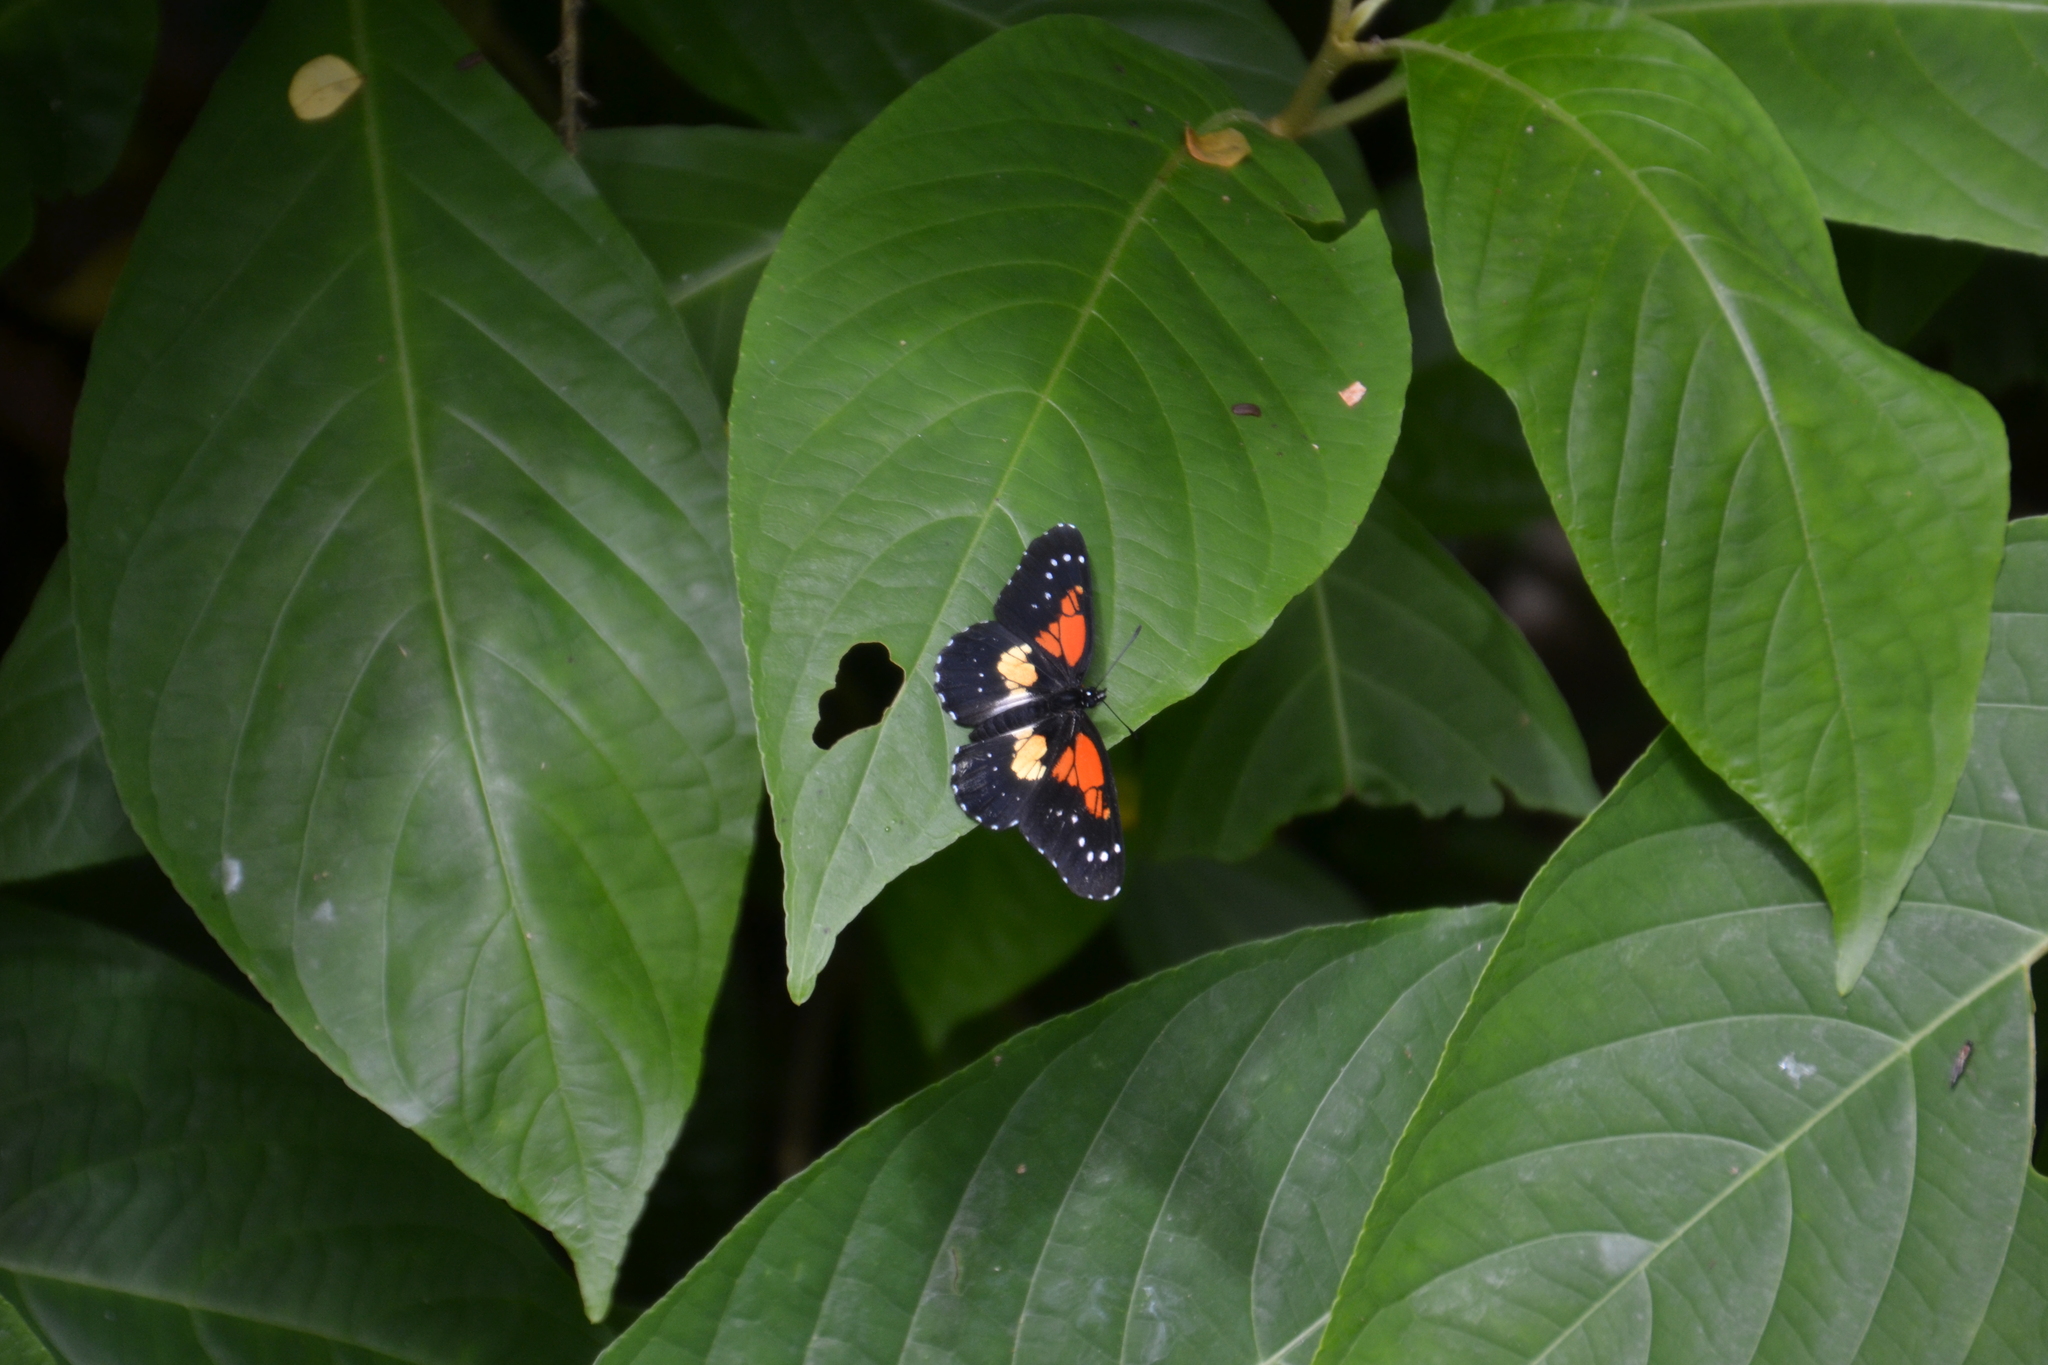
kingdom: Animalia
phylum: Arthropoda
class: Insecta
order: Lepidoptera
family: Nymphalidae
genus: Chlosyne
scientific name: Chlosyne gaudialis
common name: Gaudy checkerspot
